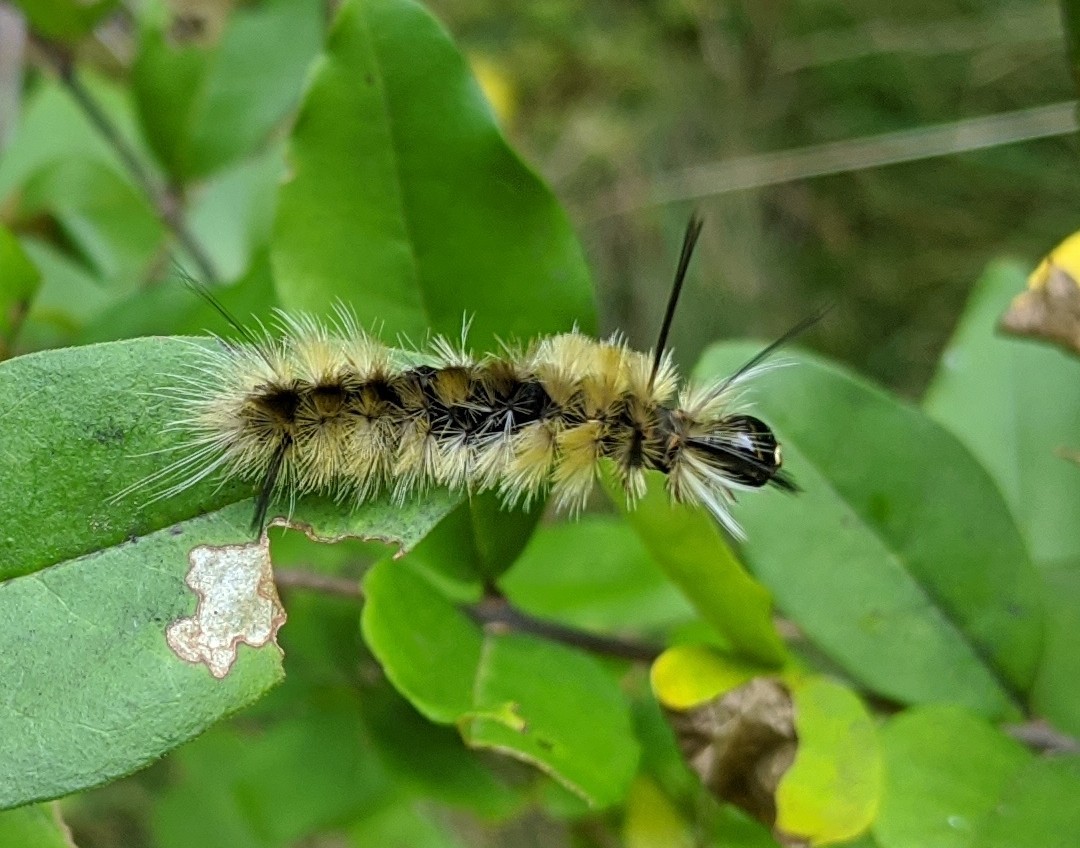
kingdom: Animalia
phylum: Arthropoda
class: Insecta
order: Lepidoptera
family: Erebidae
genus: Halysidota
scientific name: Halysidota tessellaris
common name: Banded tussock moth
